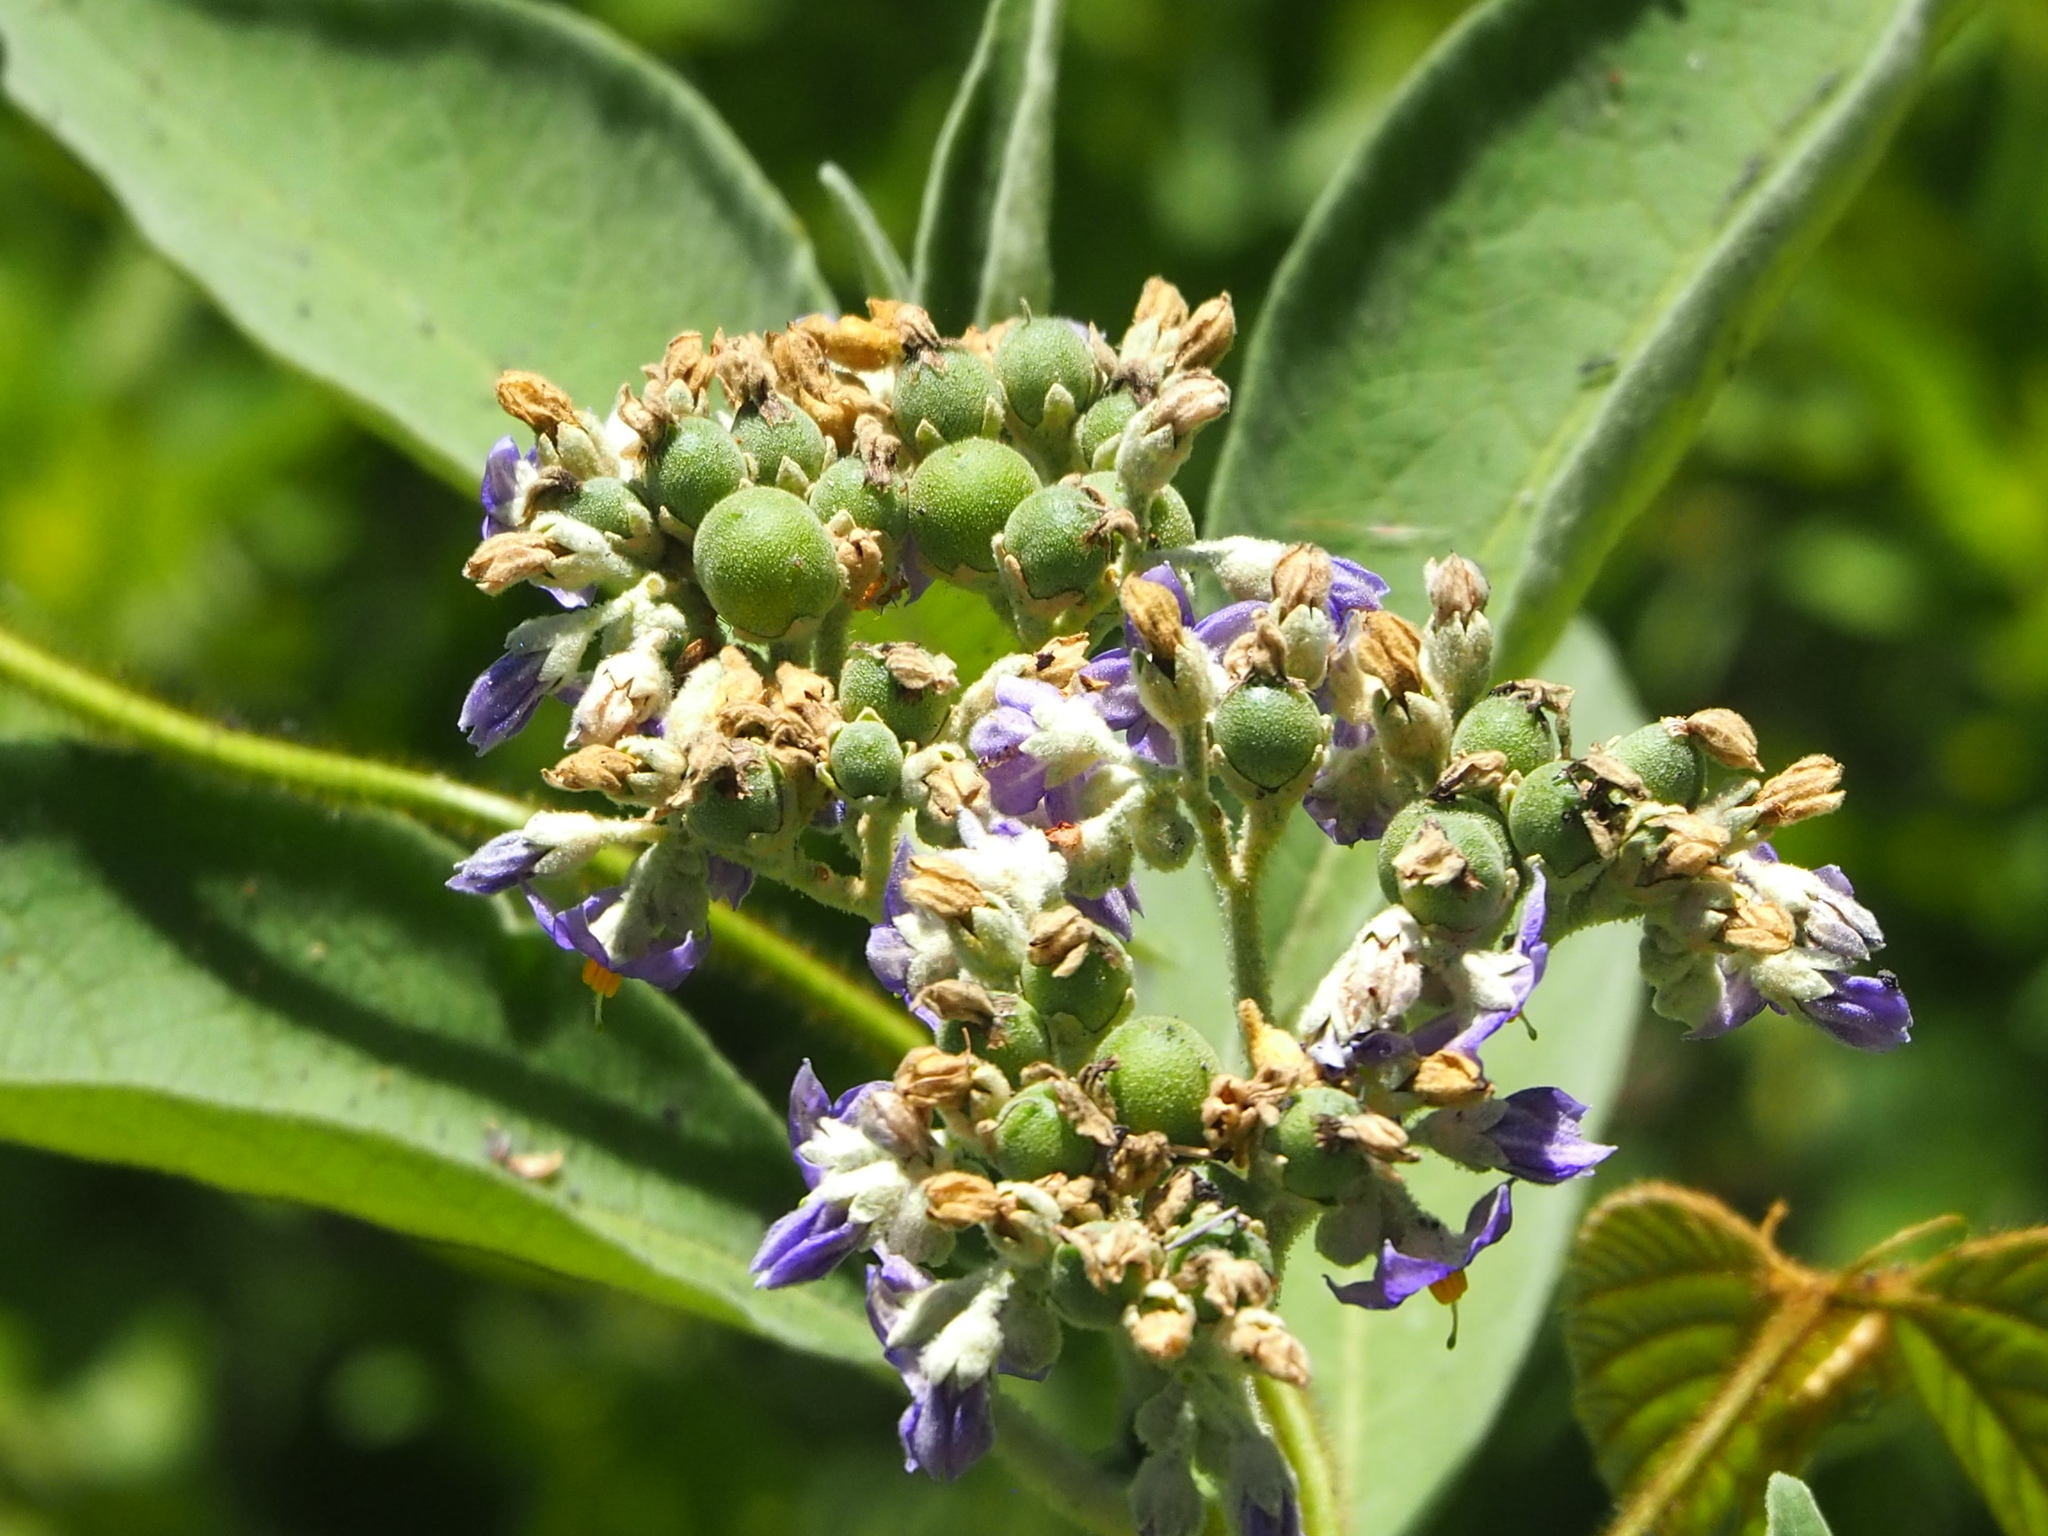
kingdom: Plantae
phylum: Tracheophyta
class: Magnoliopsida
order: Solanales
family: Solanaceae
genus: Solanum
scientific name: Solanum mauritianum
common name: Earleaf nightshade
